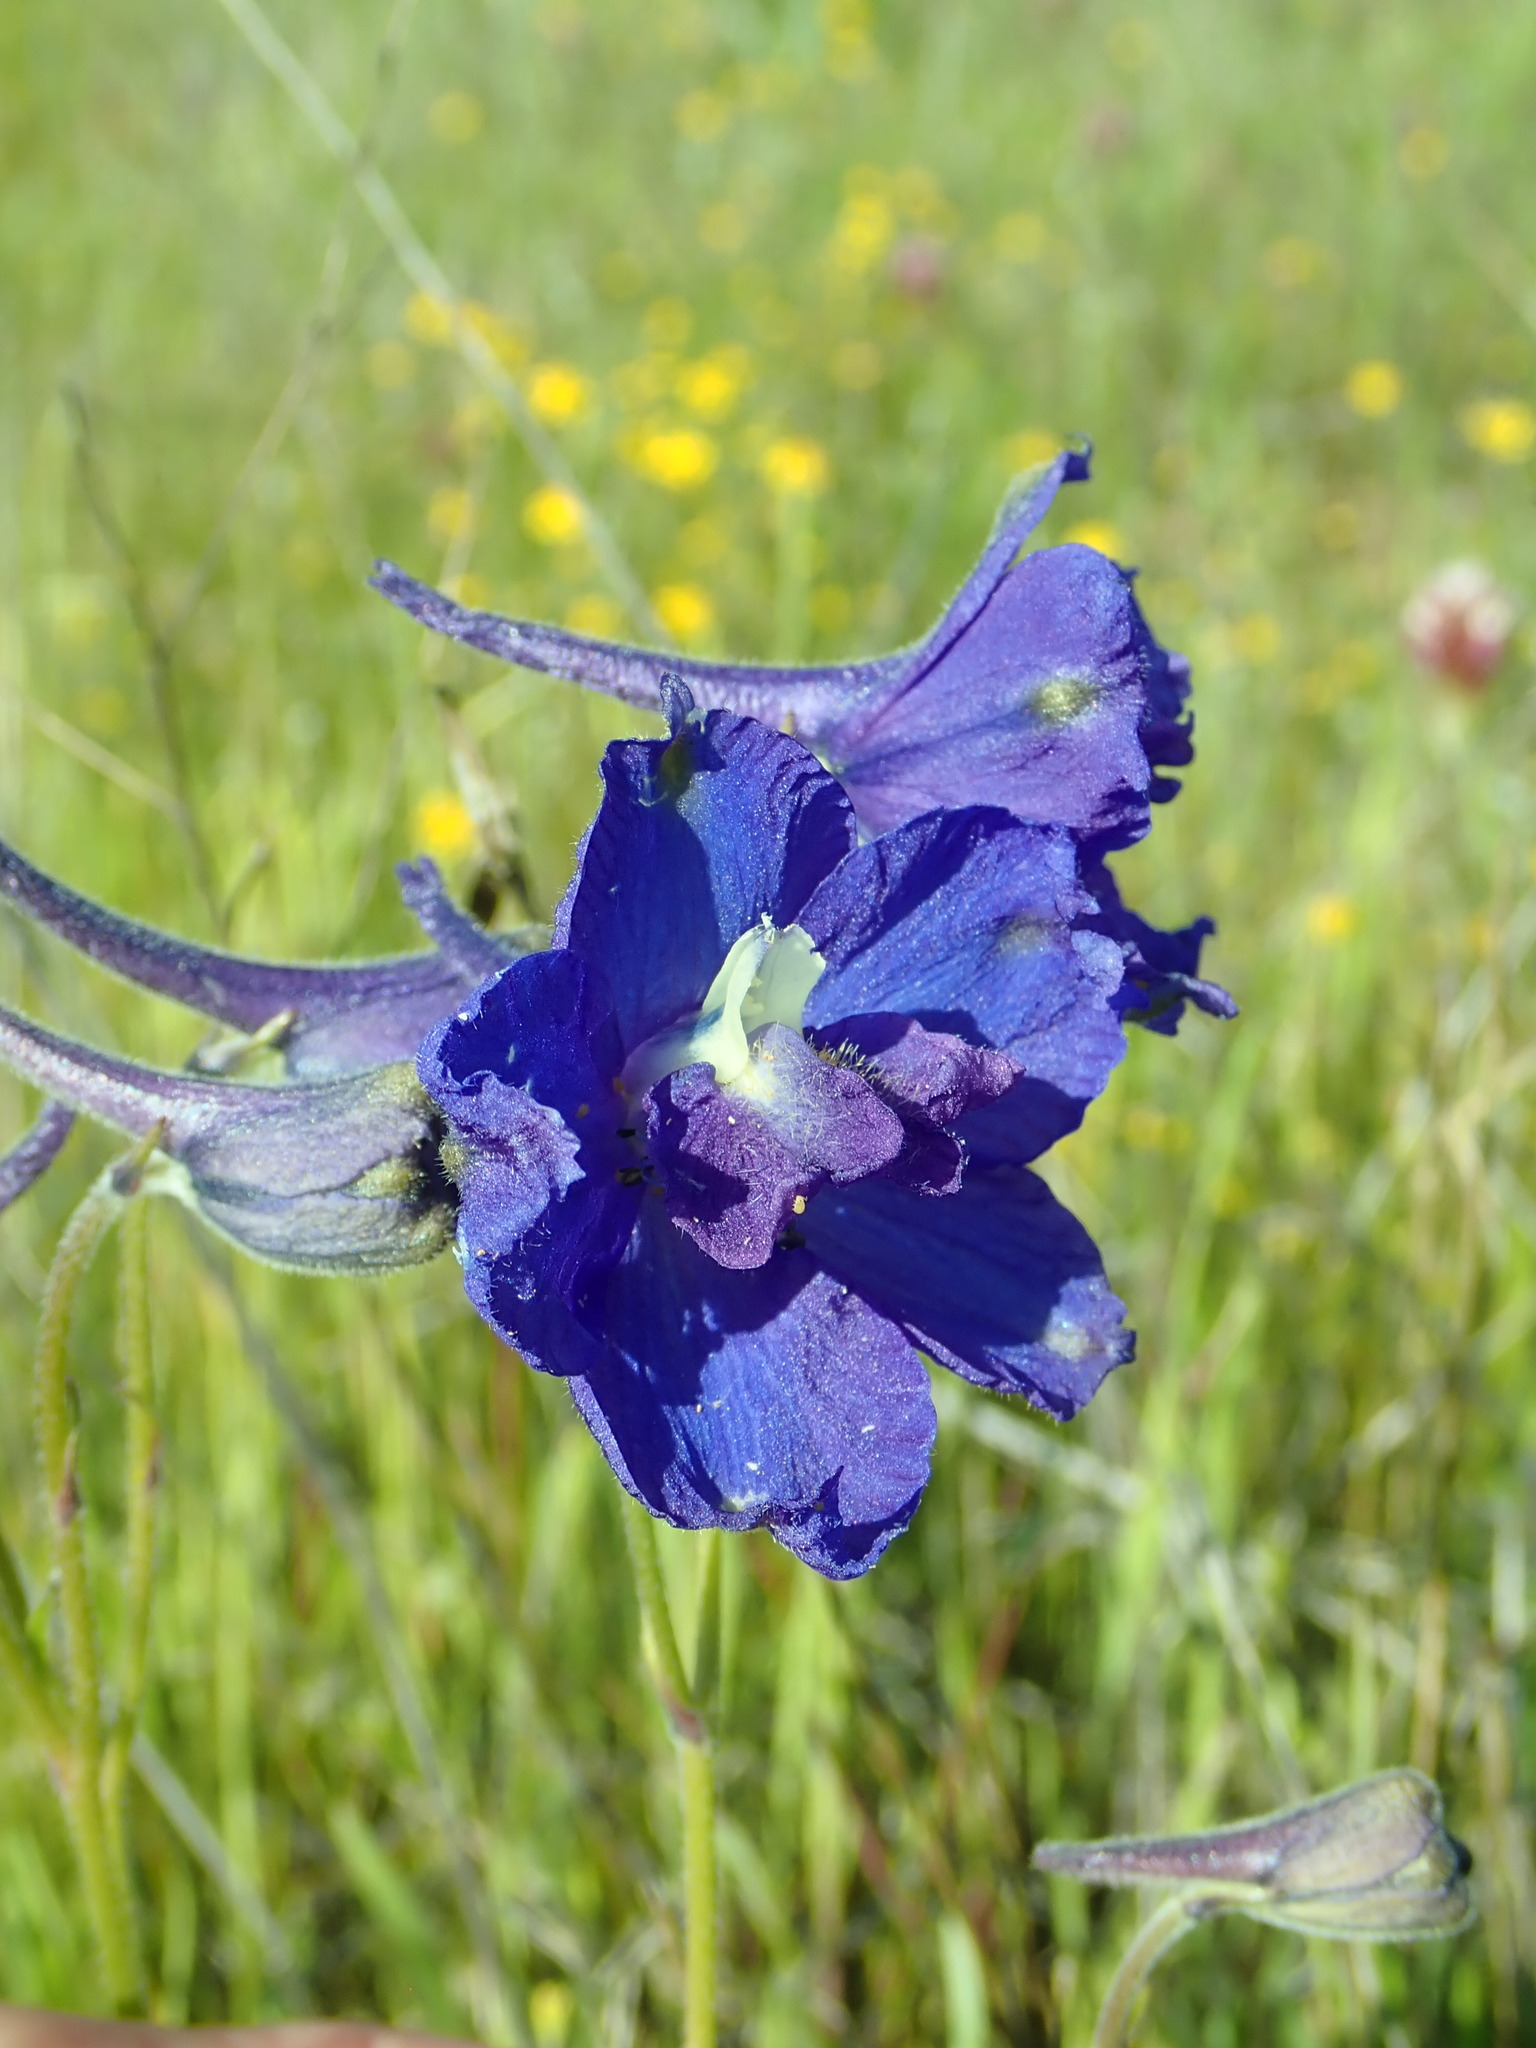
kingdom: Plantae
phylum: Tracheophyta
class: Magnoliopsida
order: Ranunculales
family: Ranunculaceae
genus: Delphinium
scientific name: Delphinium variegatum
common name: Royal larkspur
